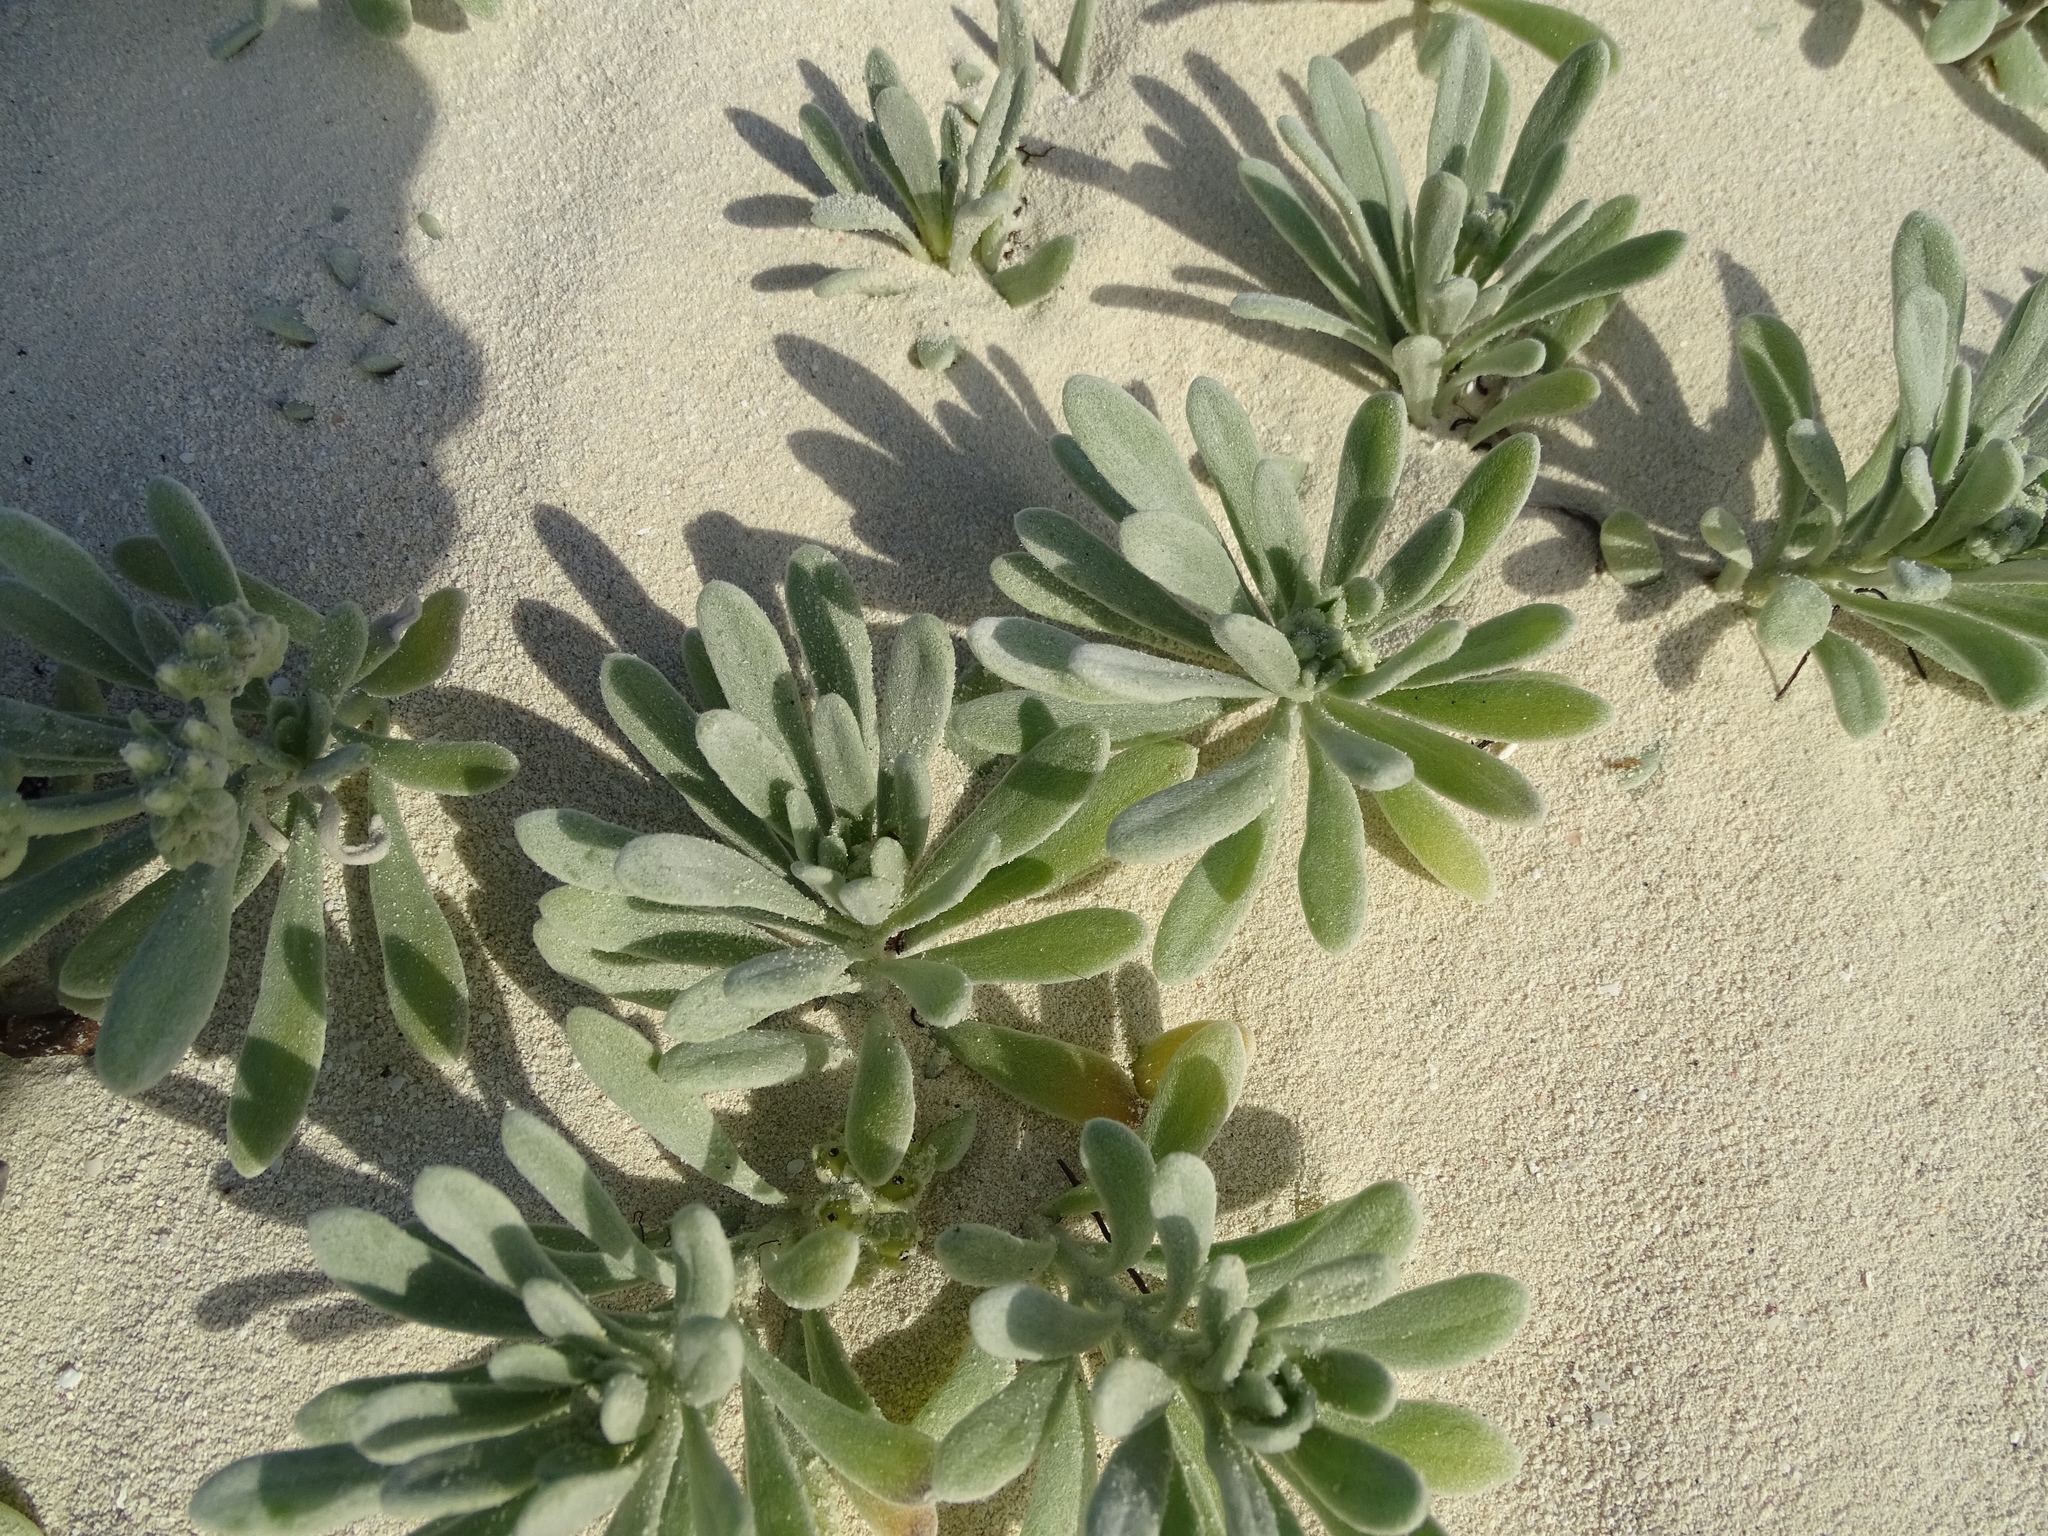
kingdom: Plantae
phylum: Tracheophyta
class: Magnoliopsida
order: Boraginales
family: Heliotropiaceae
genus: Tournefortia
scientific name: Tournefortia gnaphalodes
